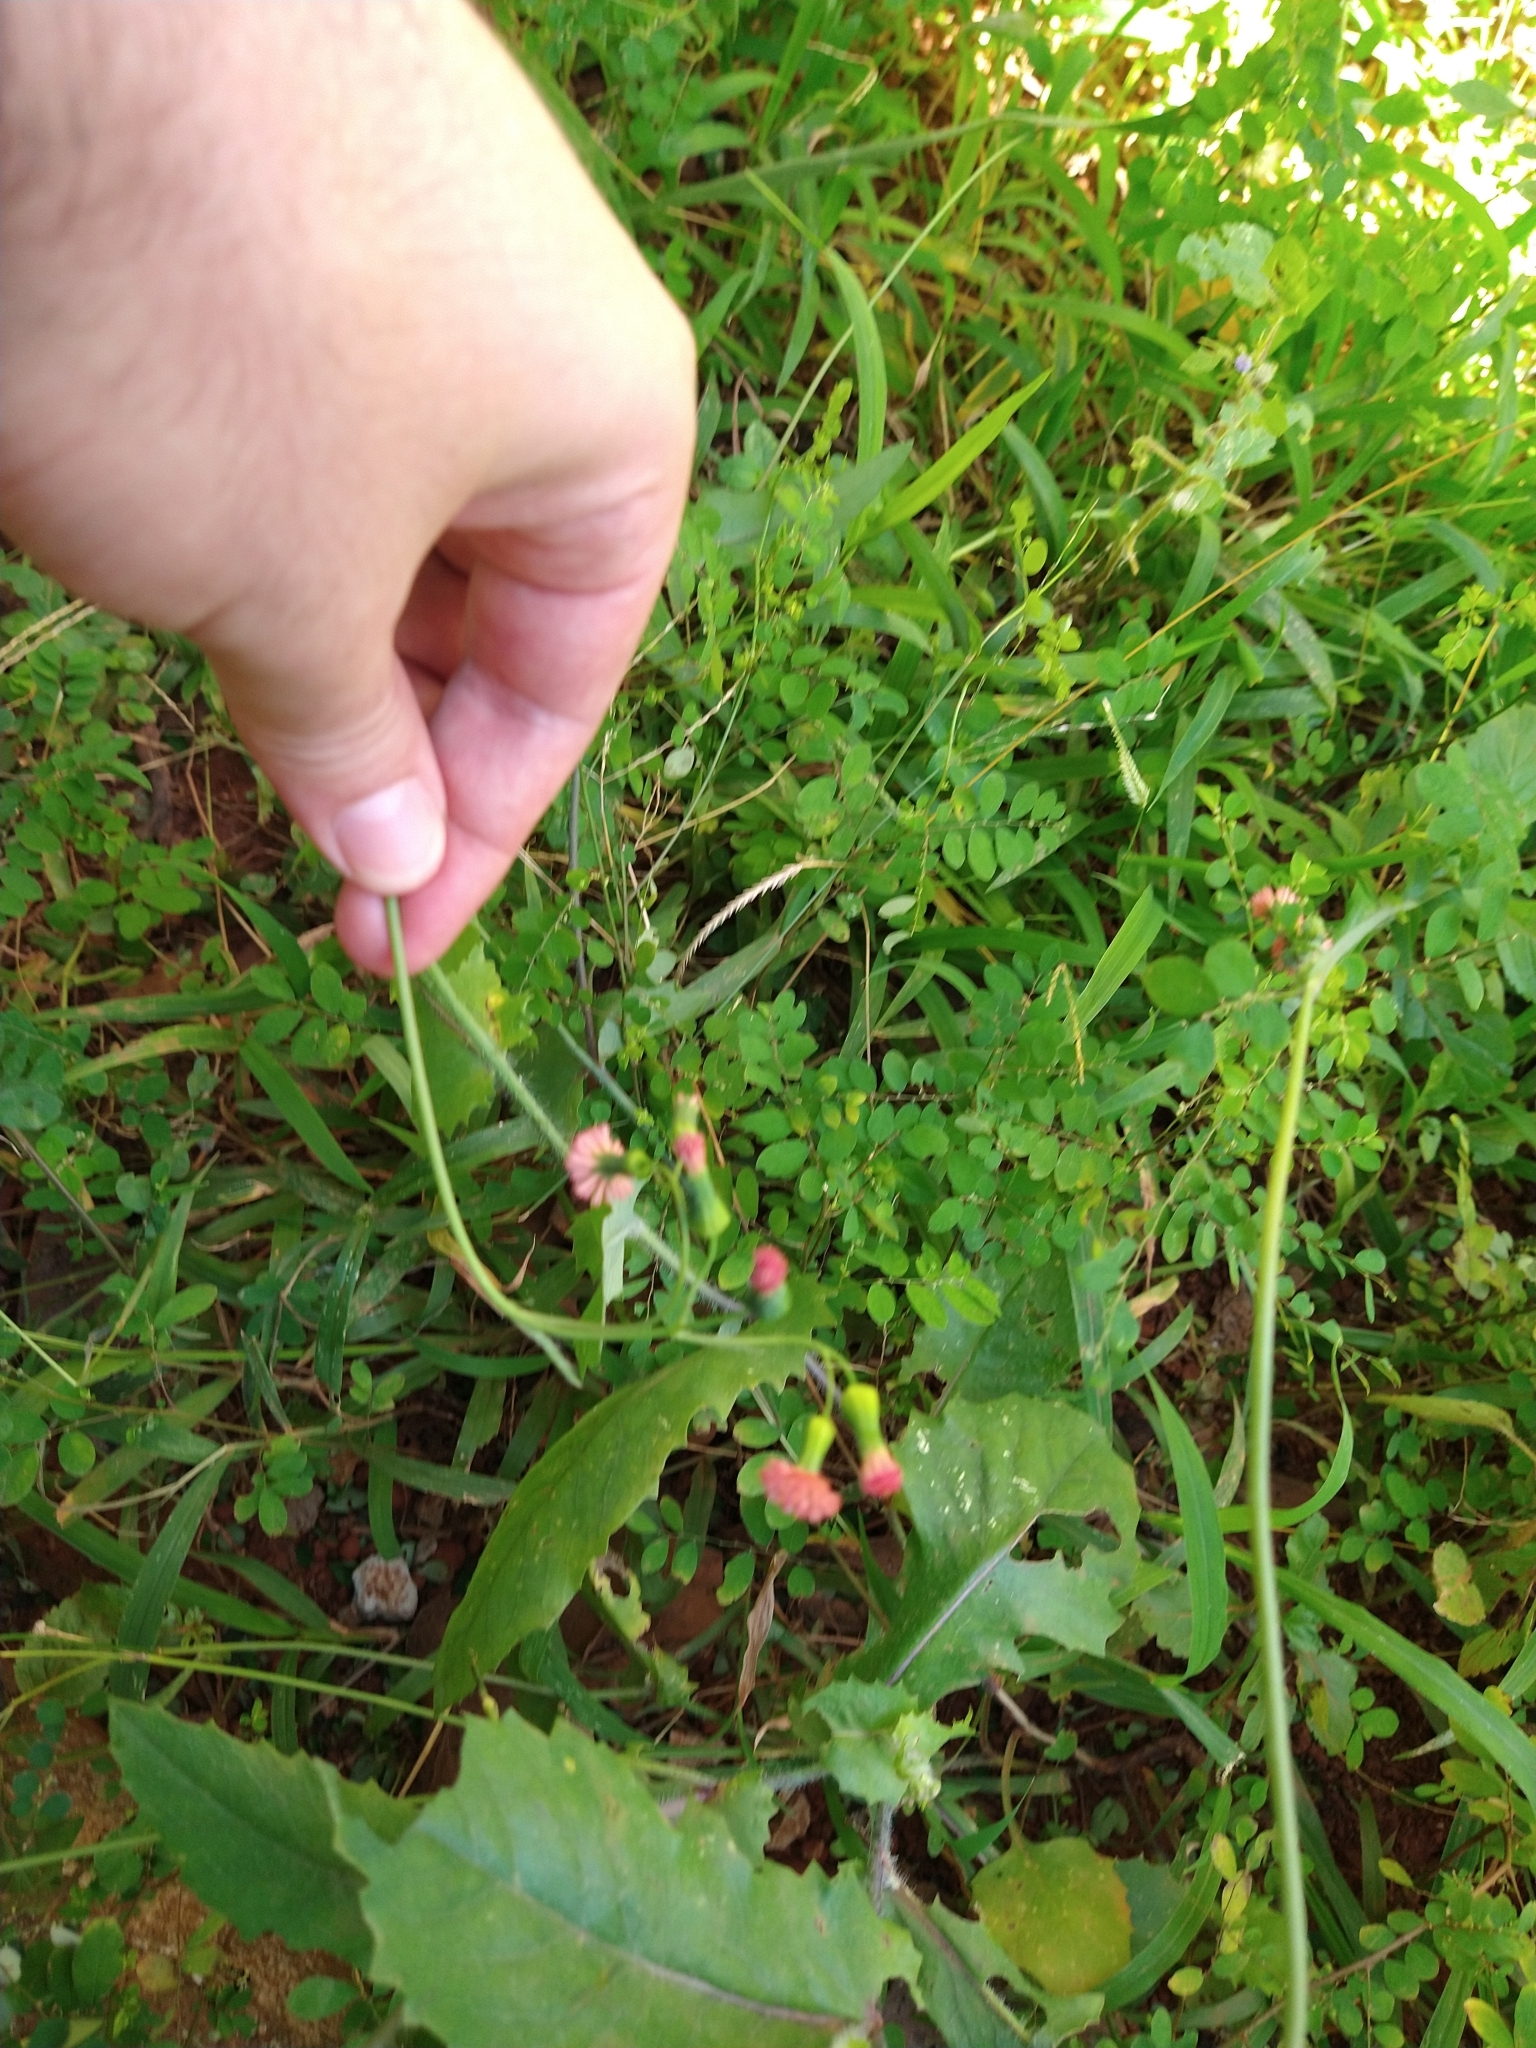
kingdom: Plantae
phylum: Tracheophyta
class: Magnoliopsida
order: Asterales
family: Asteraceae
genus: Emilia
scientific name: Emilia fosbergii
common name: Florida tasselflower
